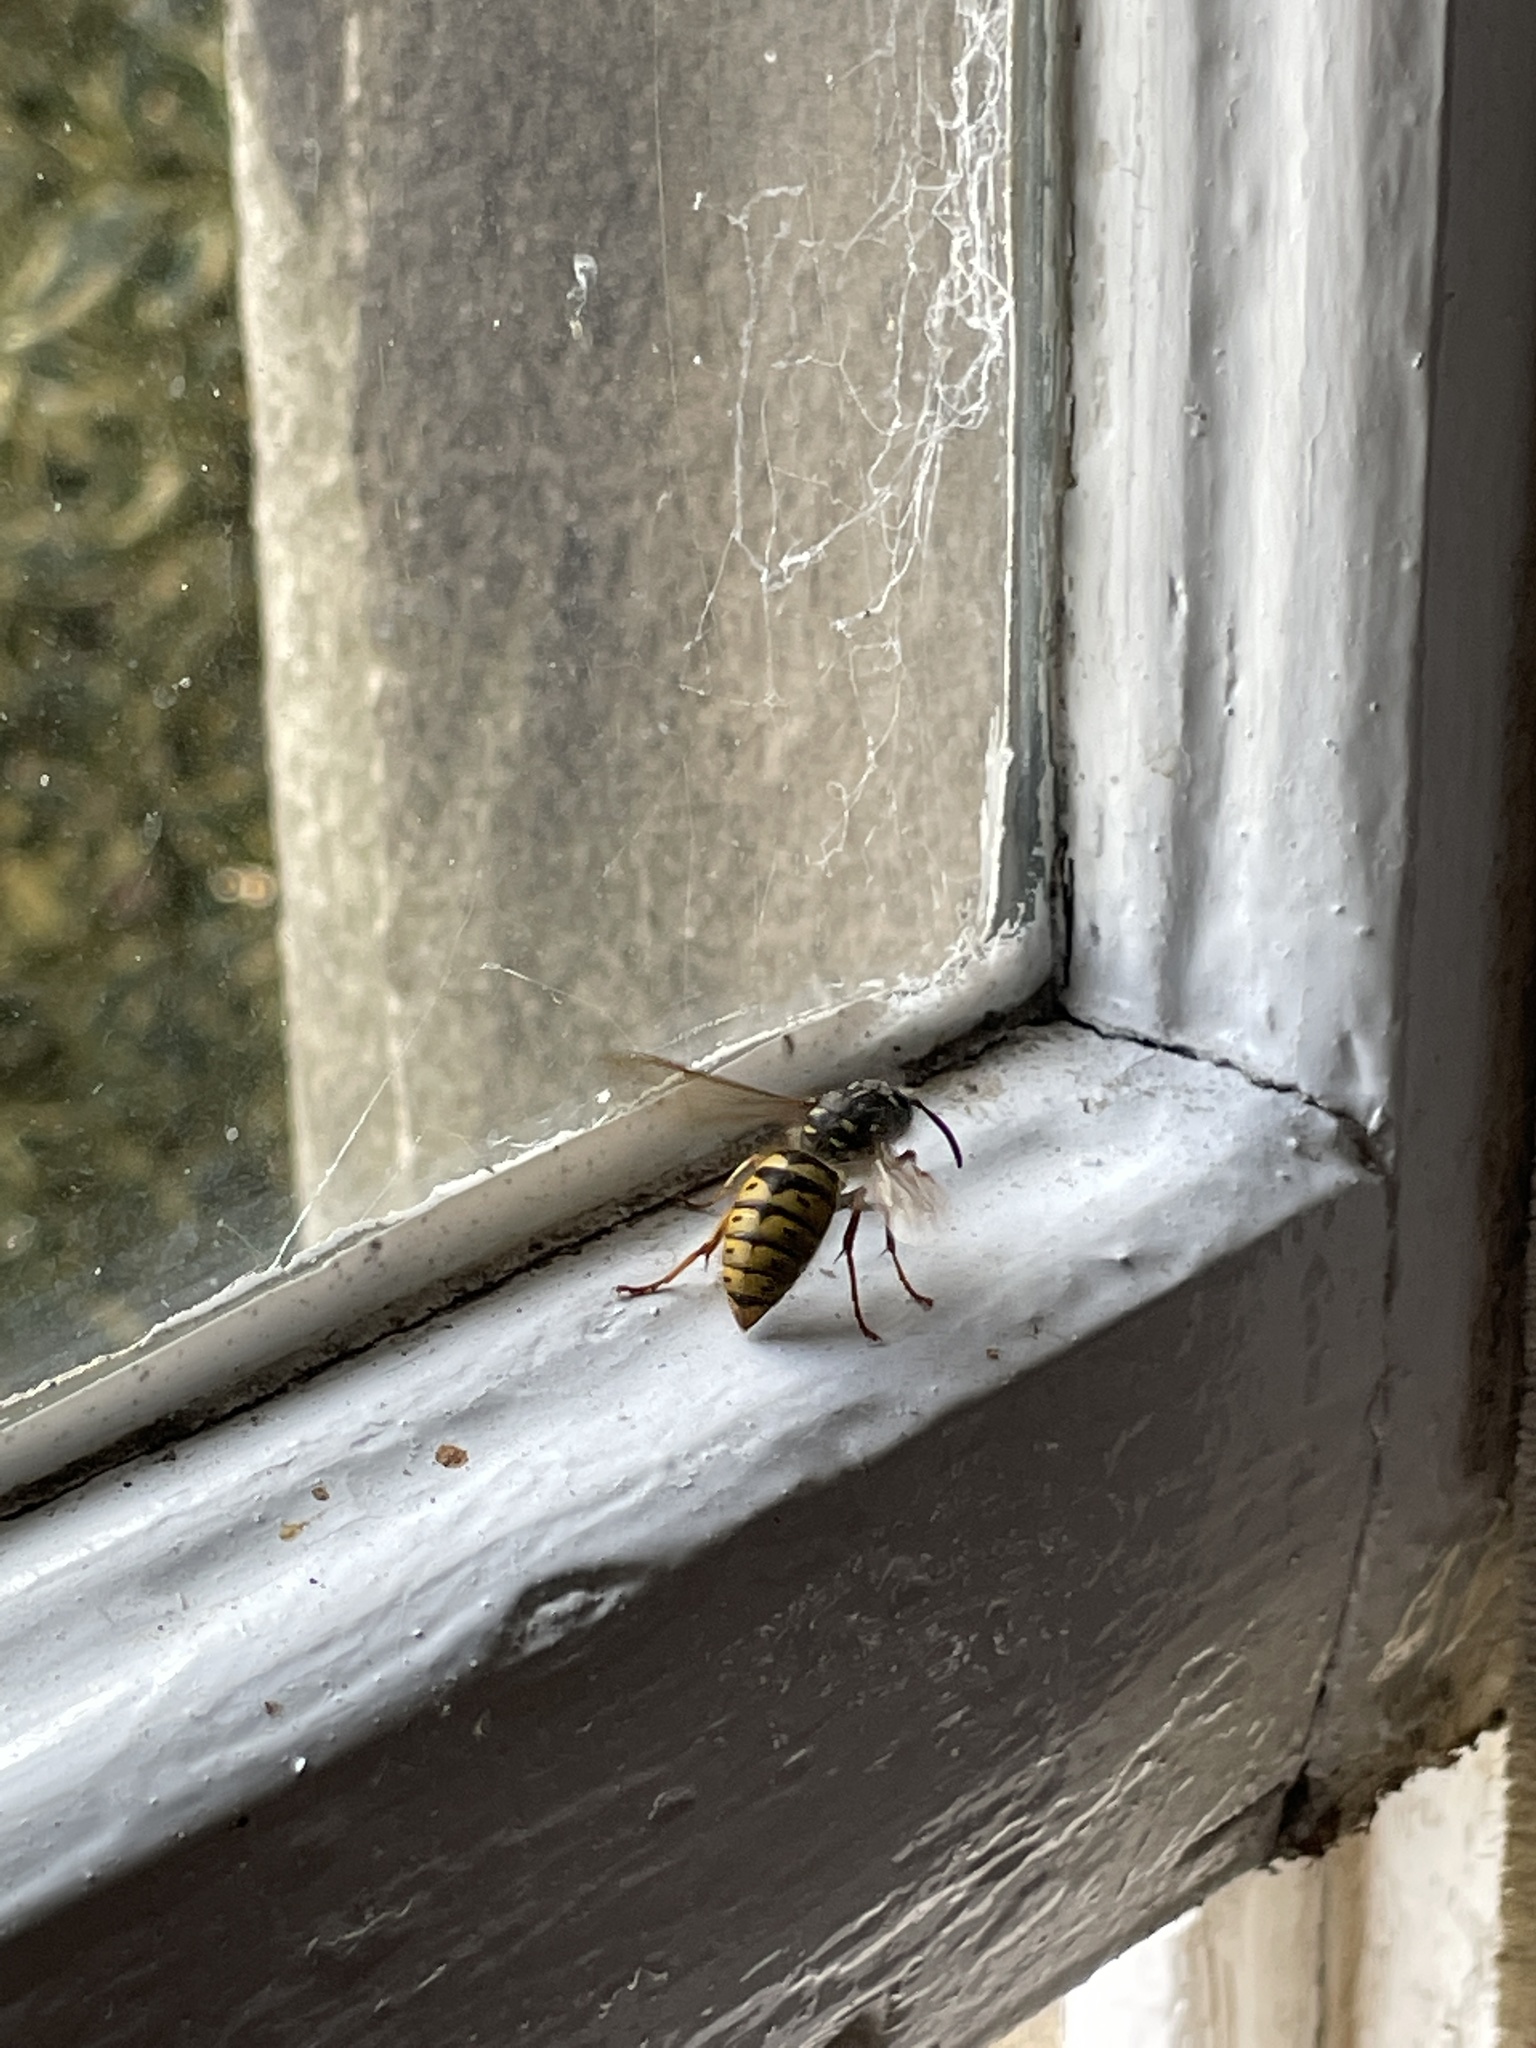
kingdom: Animalia
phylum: Arthropoda
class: Insecta
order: Hymenoptera
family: Vespidae
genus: Vespula
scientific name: Vespula vulgaris
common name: Common wasp
